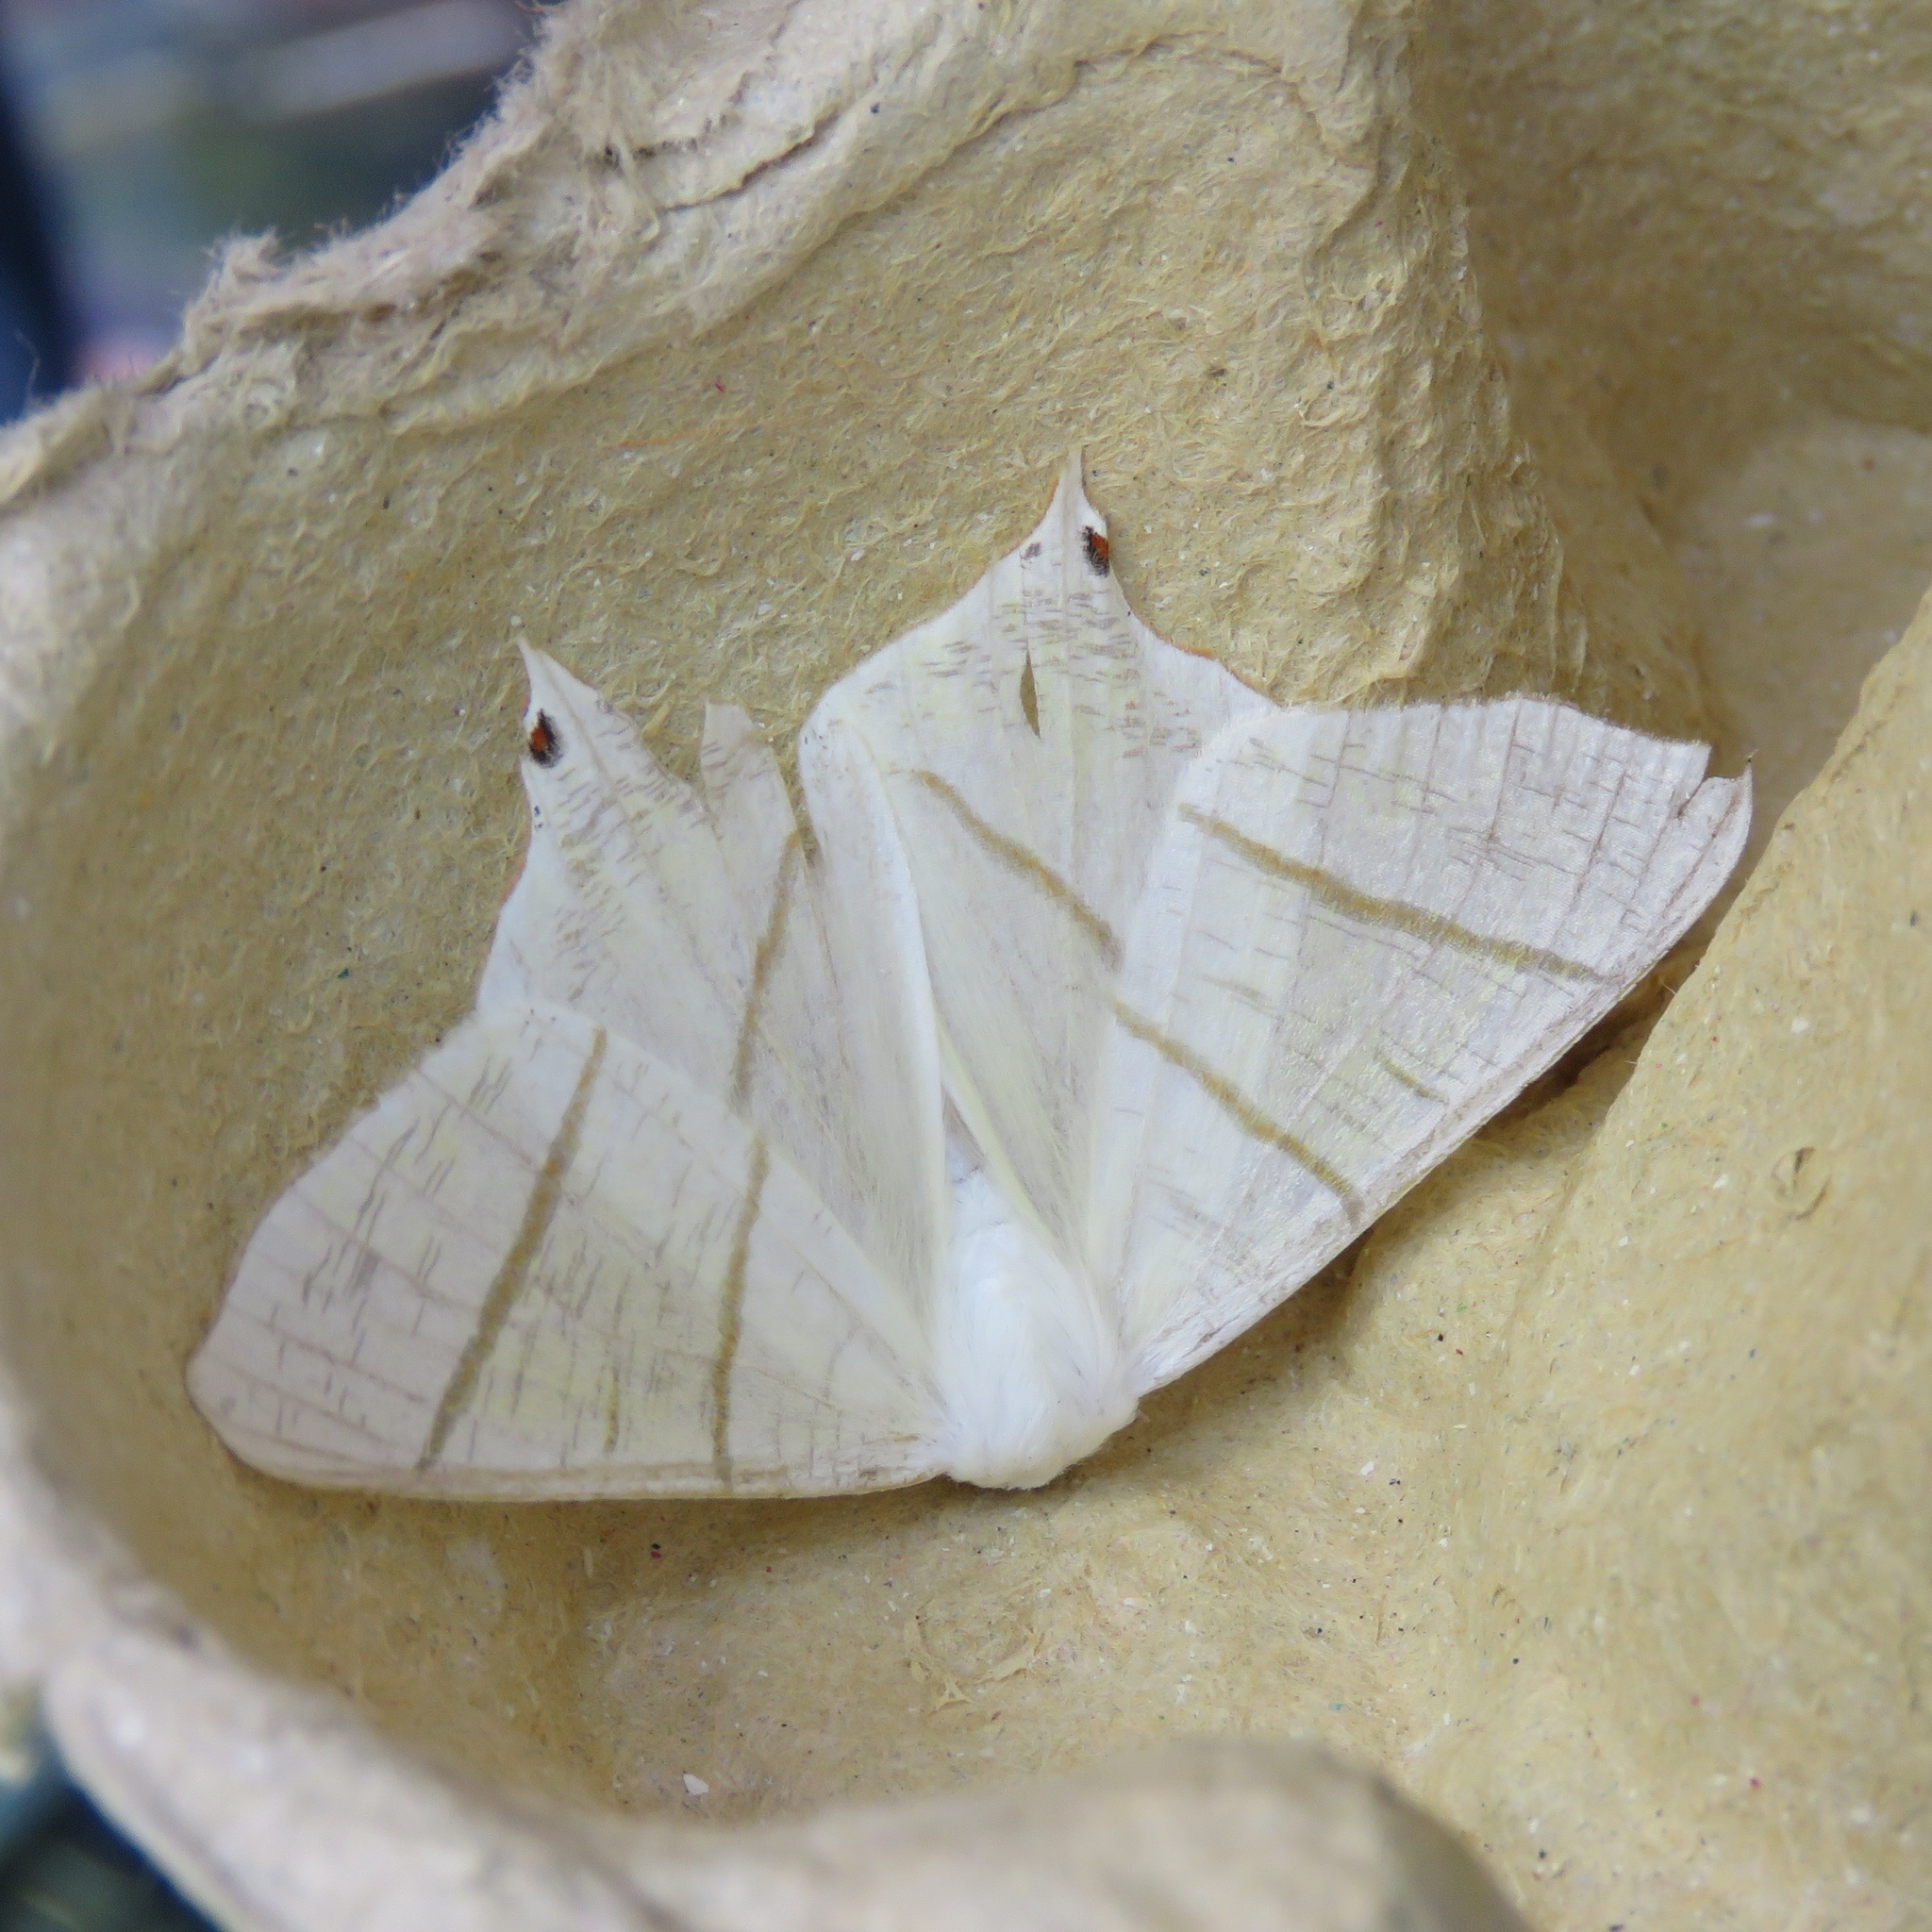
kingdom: Animalia
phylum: Arthropoda
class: Insecta
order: Lepidoptera
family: Geometridae
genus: Ourapteryx
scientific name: Ourapteryx sambucaria
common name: Swallow-tailed moth
